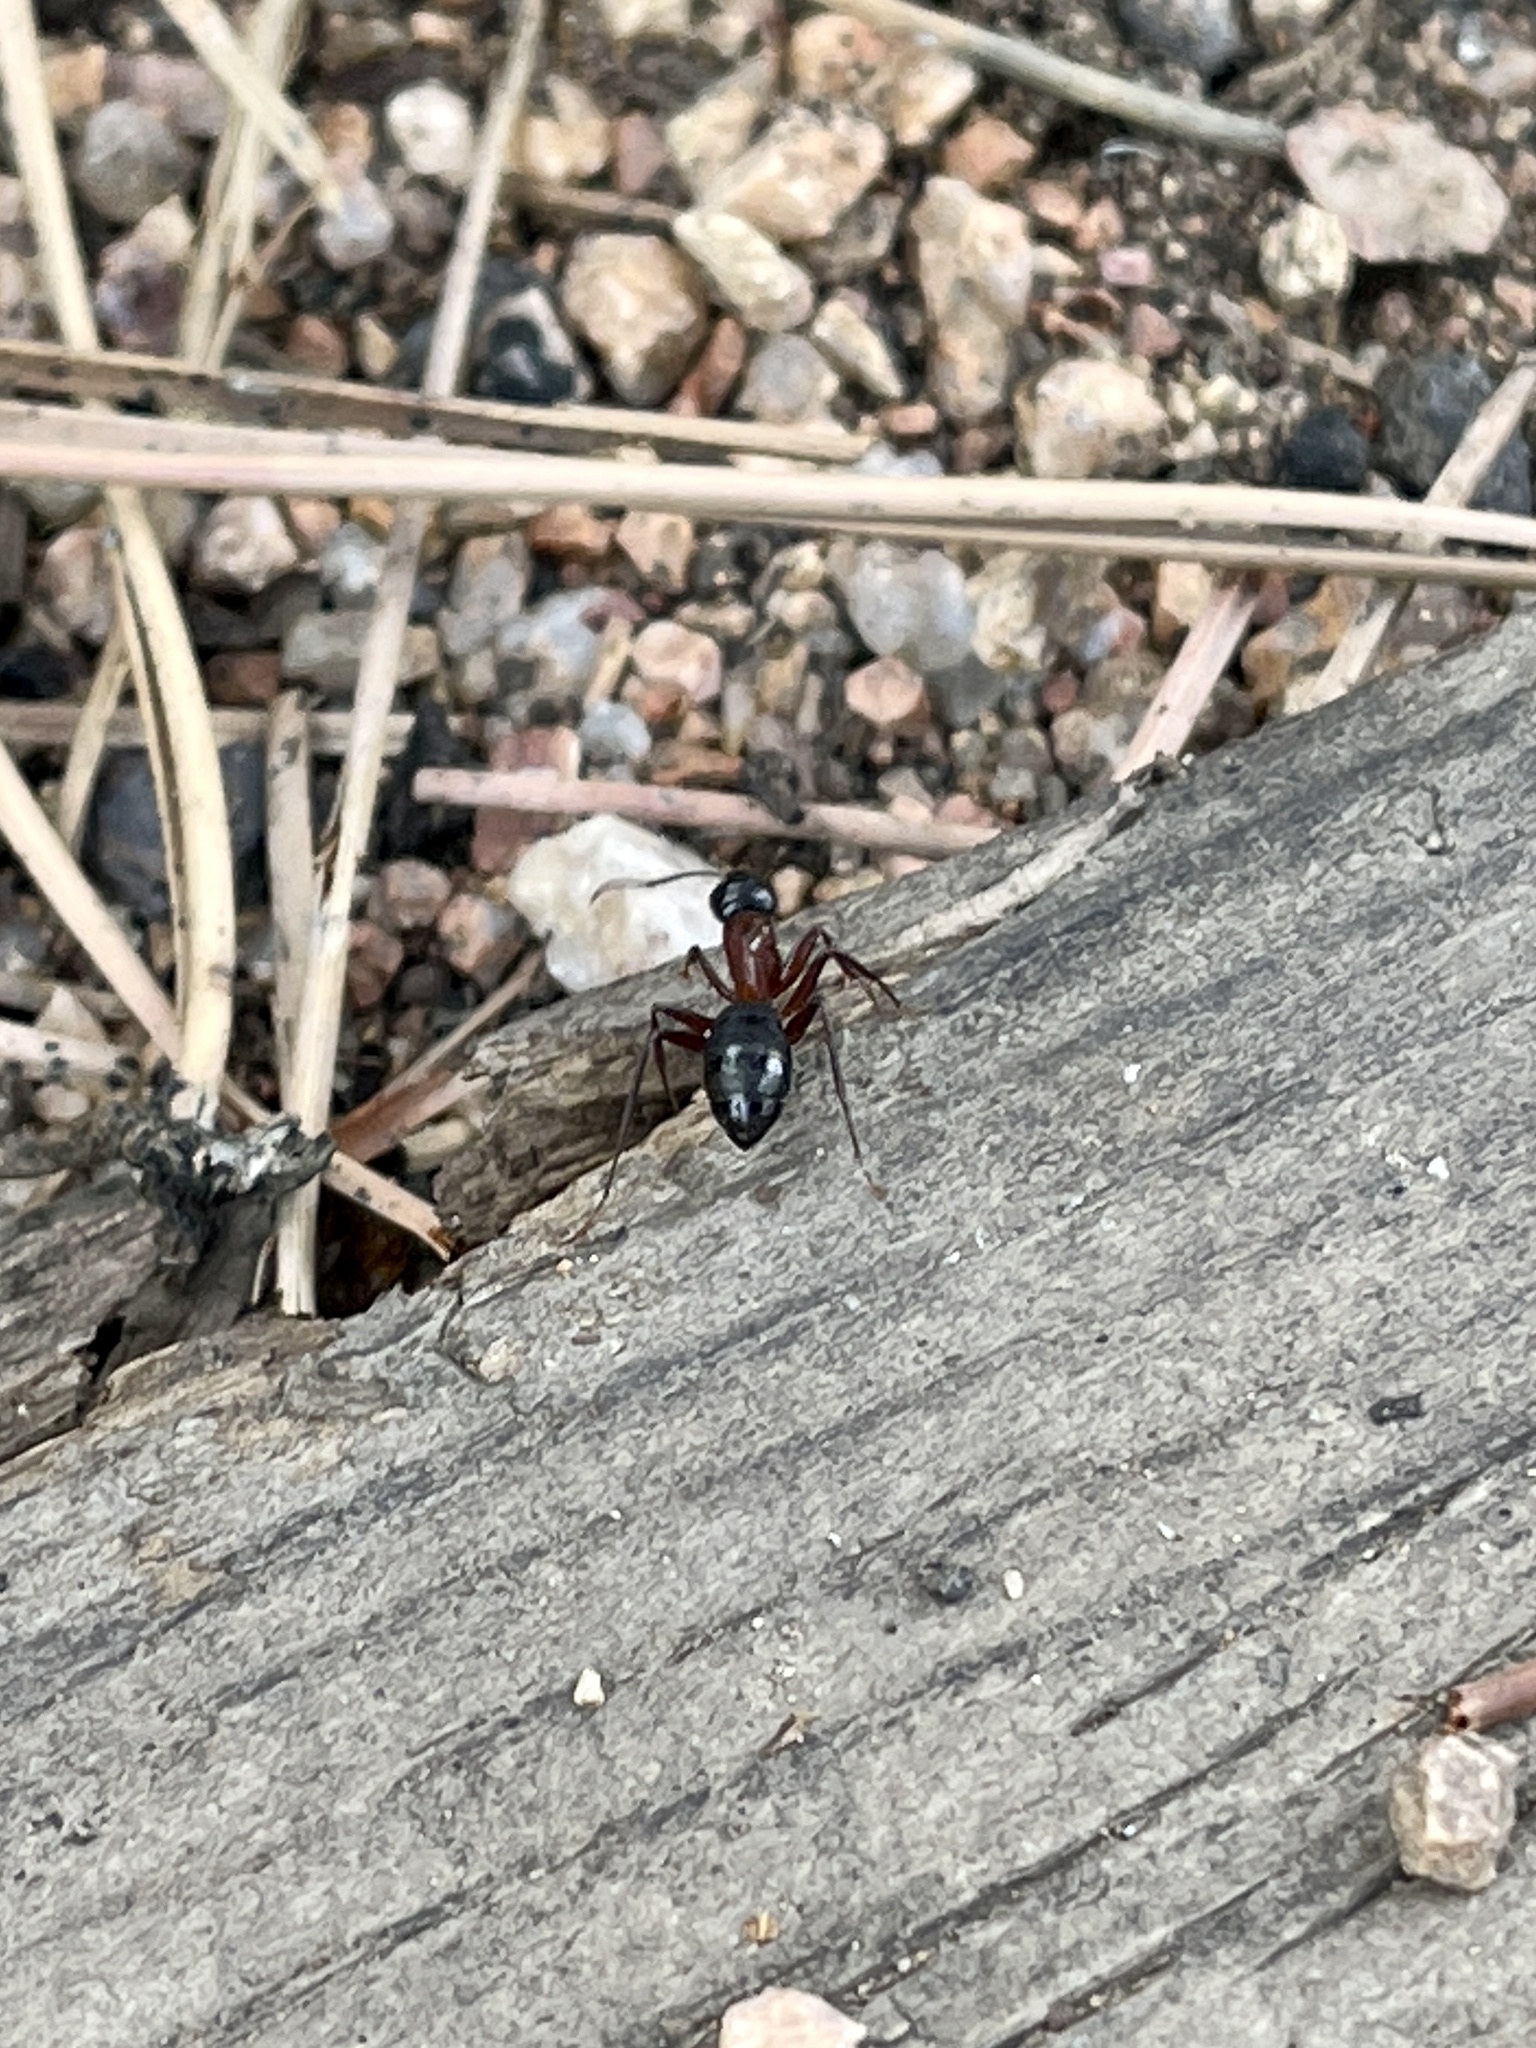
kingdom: Animalia
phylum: Arthropoda
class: Insecta
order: Hymenoptera
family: Formicidae
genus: Camponotus
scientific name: Camponotus vicinus
